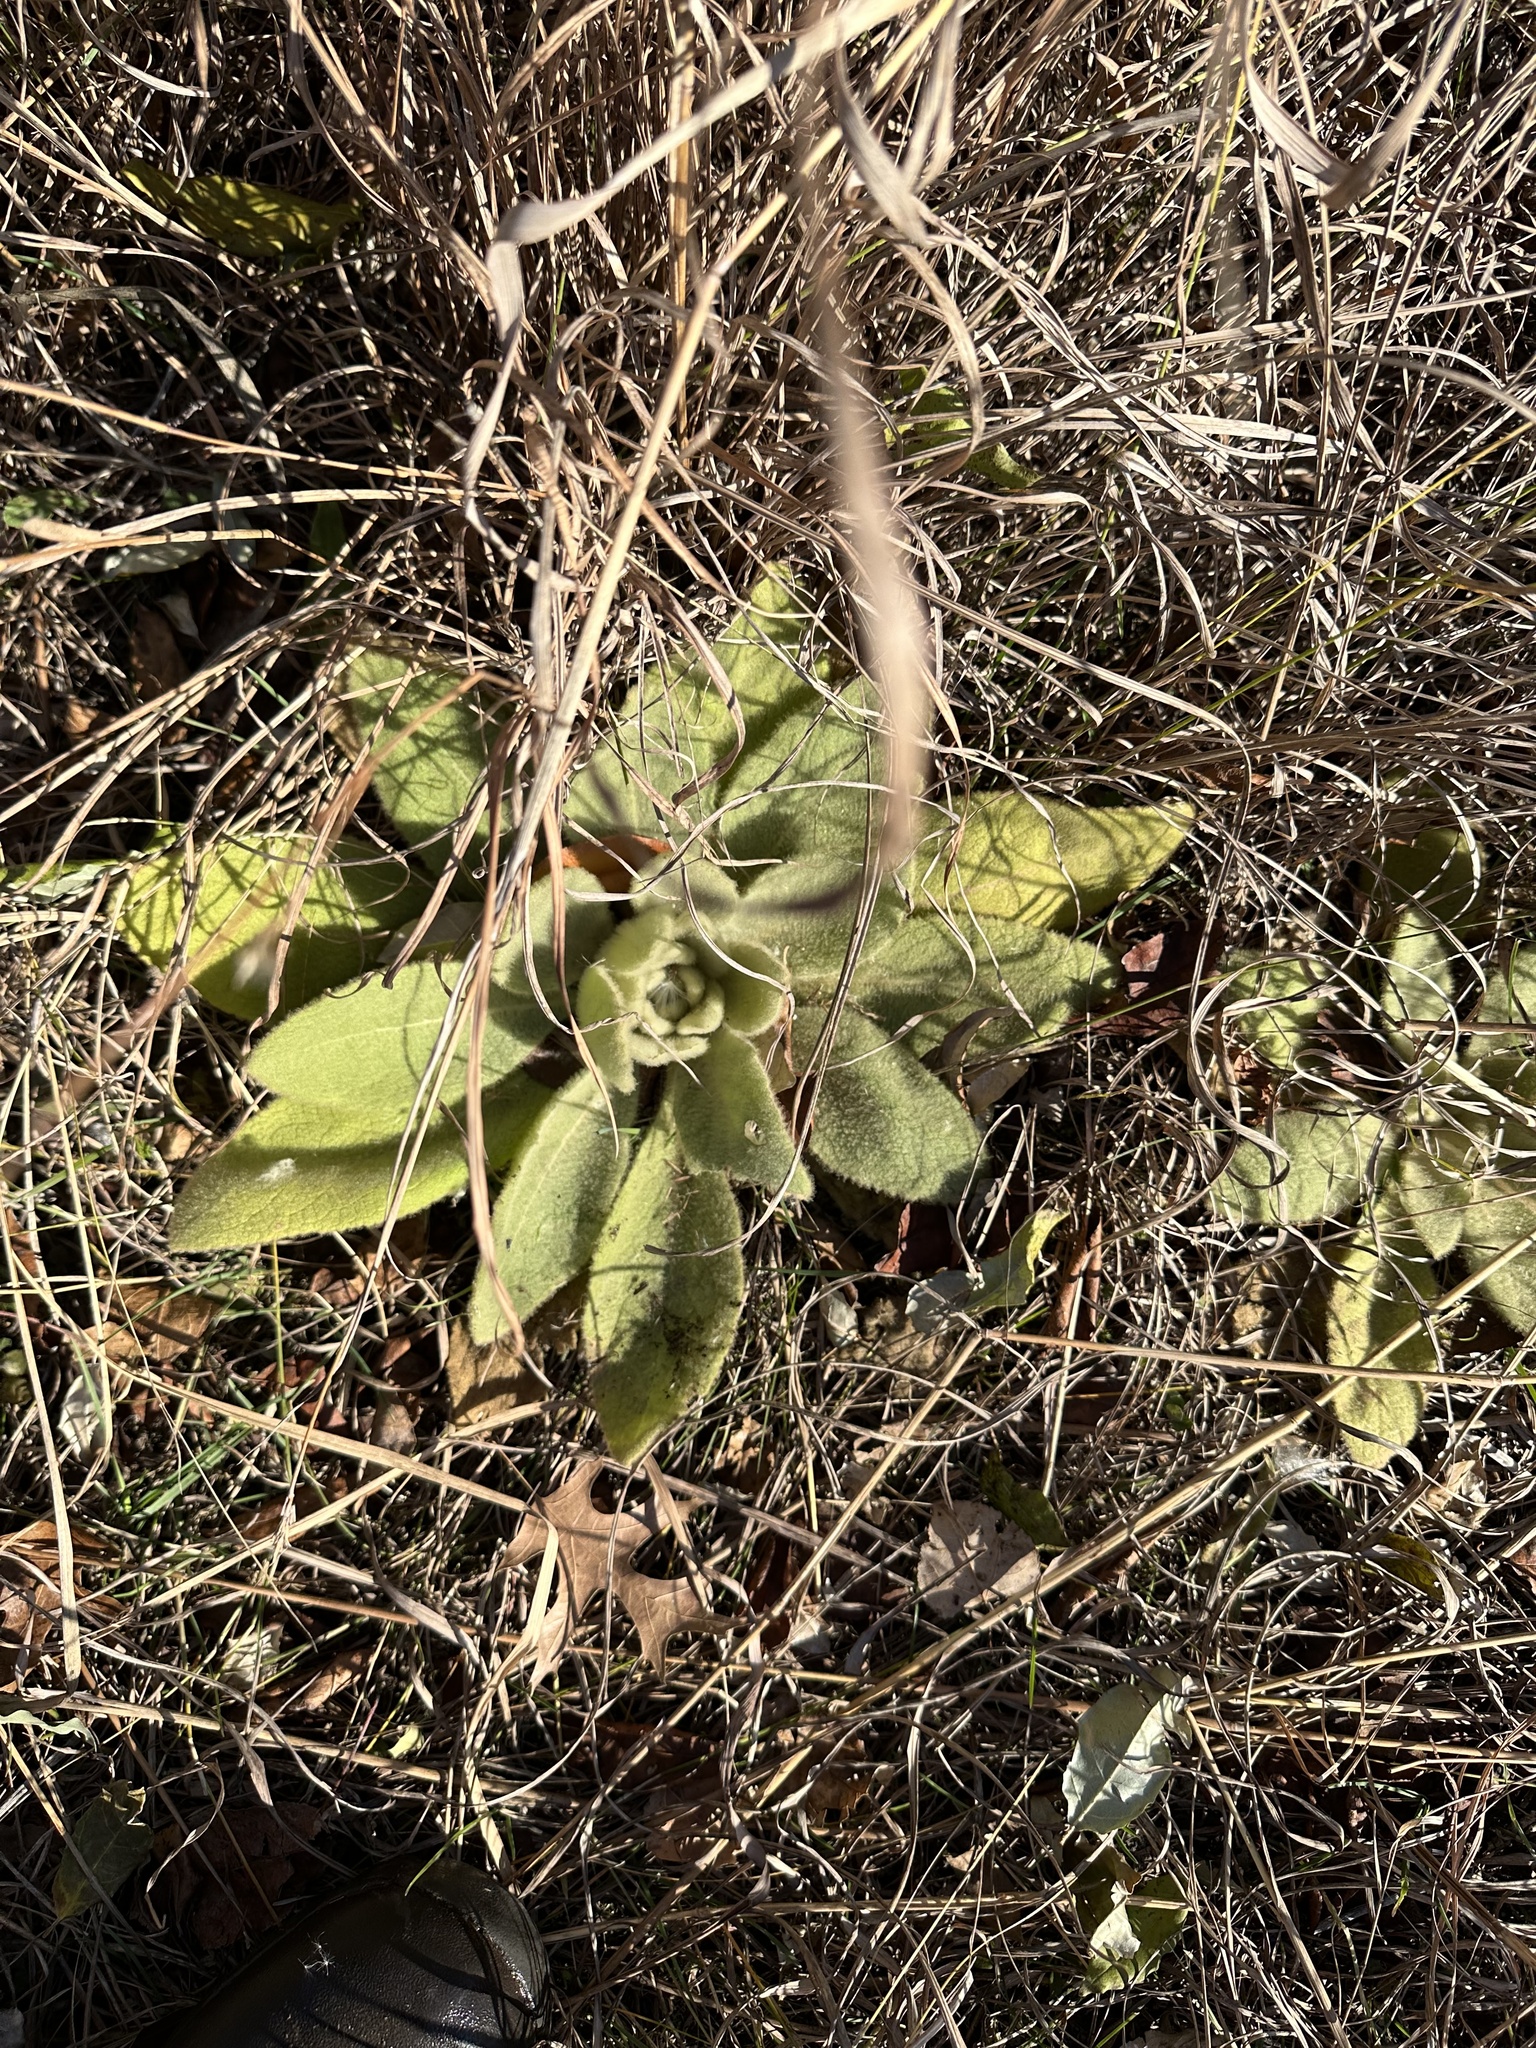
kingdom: Plantae
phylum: Tracheophyta
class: Magnoliopsida
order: Lamiales
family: Scrophulariaceae
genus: Verbascum
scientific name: Verbascum thapsus
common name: Common mullein
